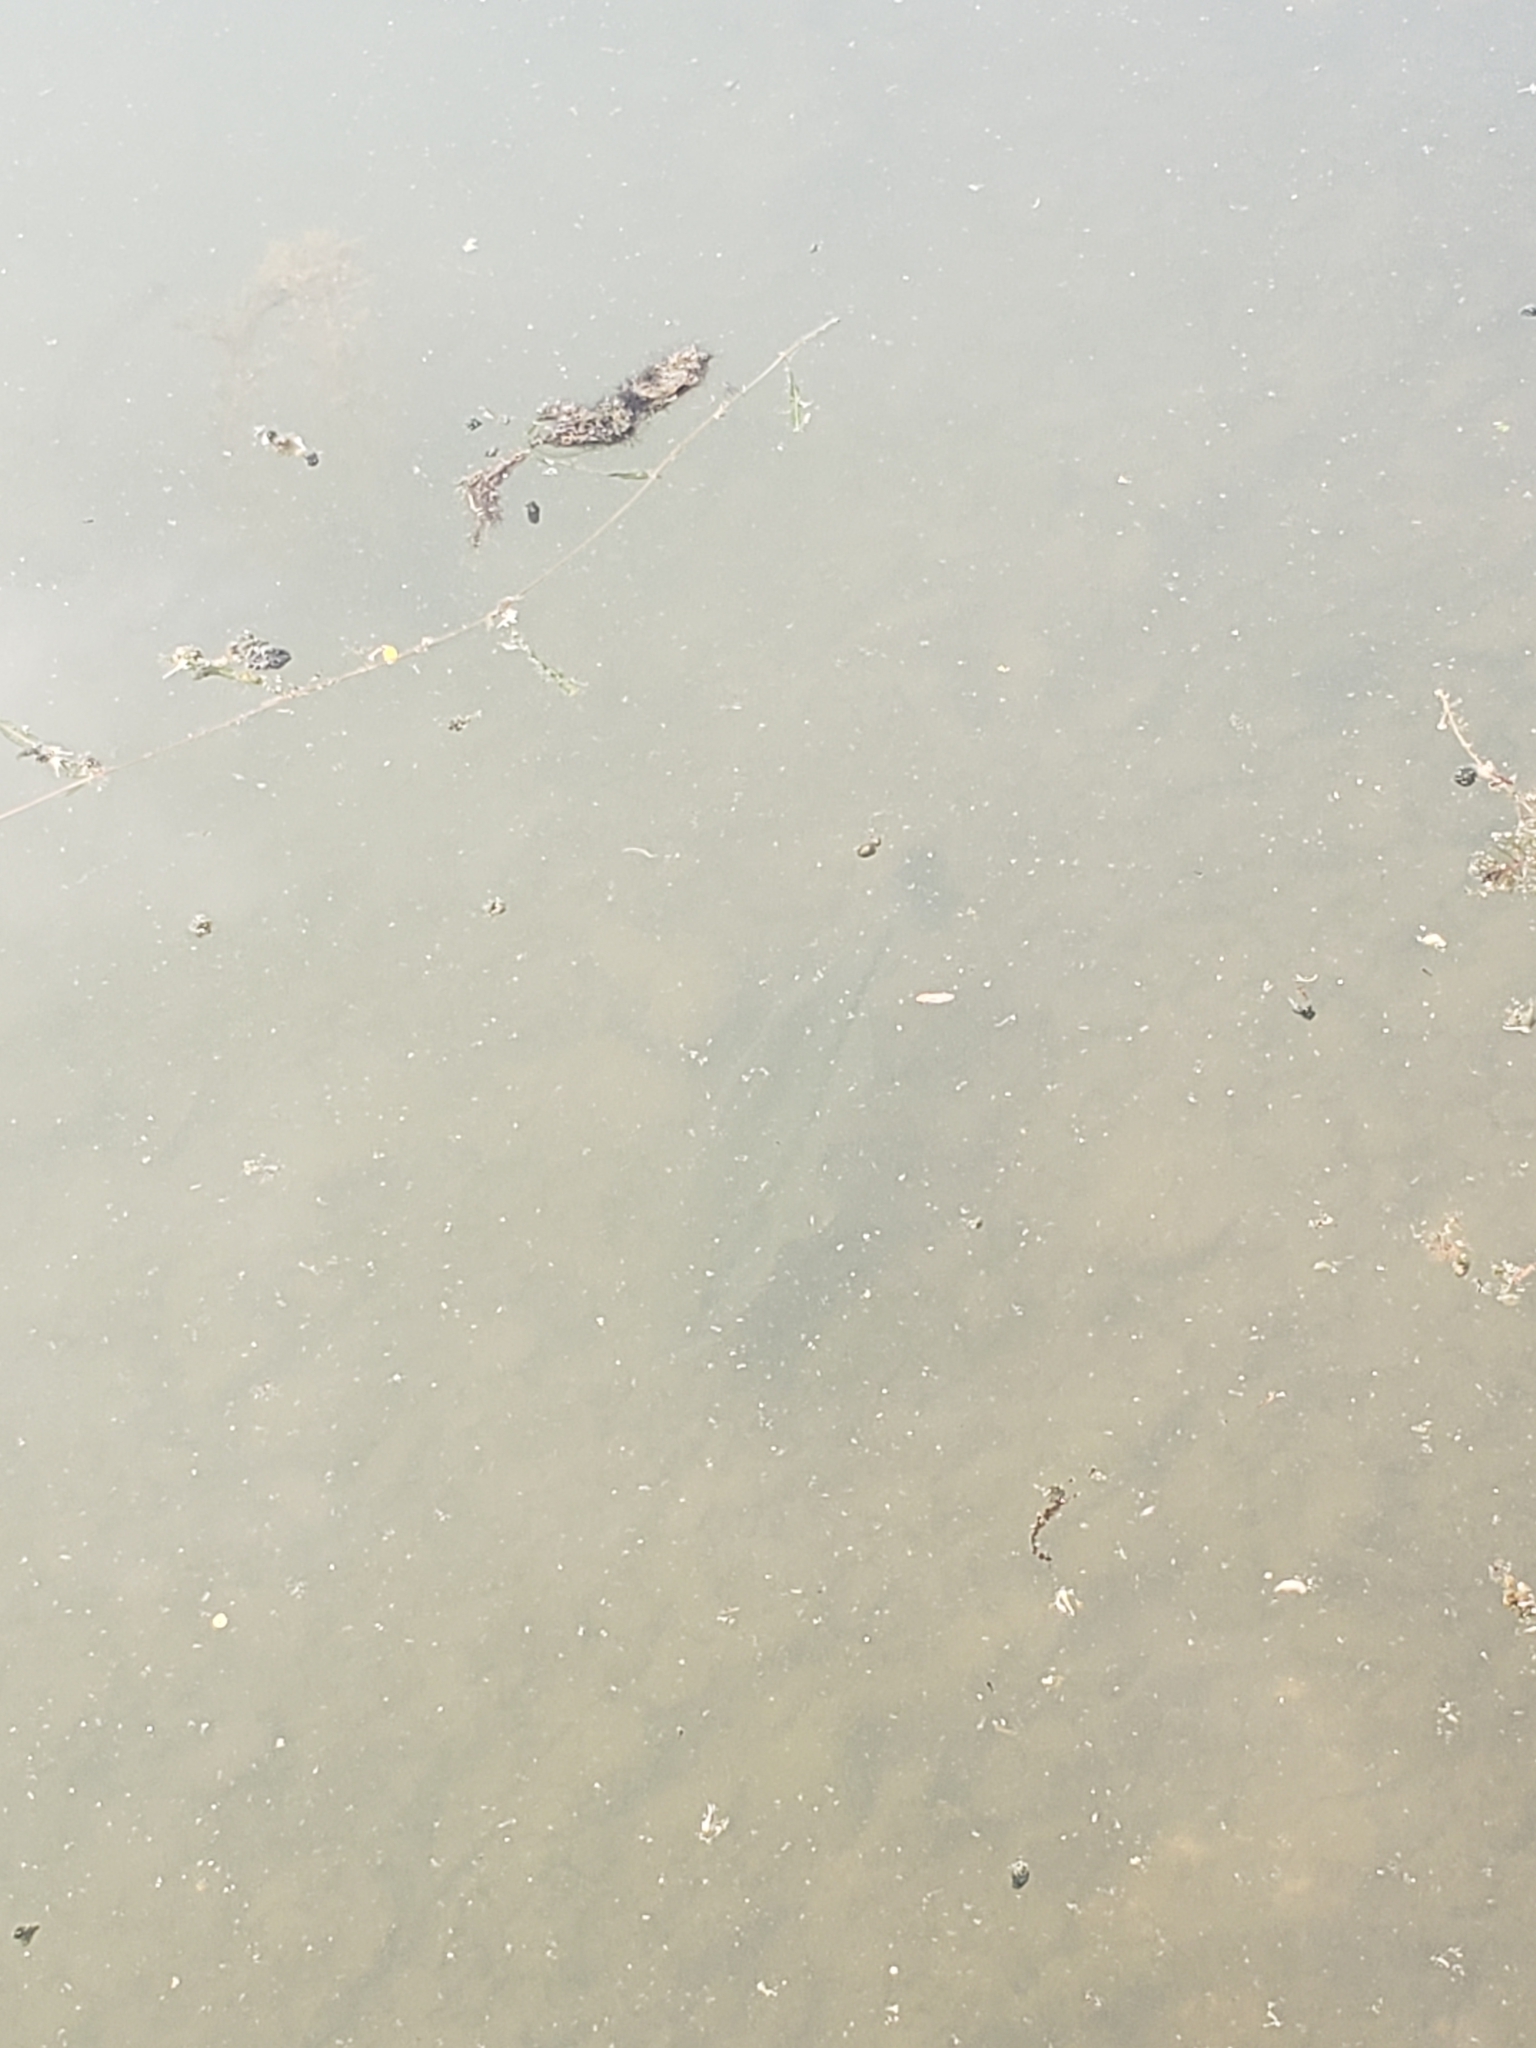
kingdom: Animalia
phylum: Chordata
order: Perciformes
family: Centrarchidae
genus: Micropterus
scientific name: Micropterus
